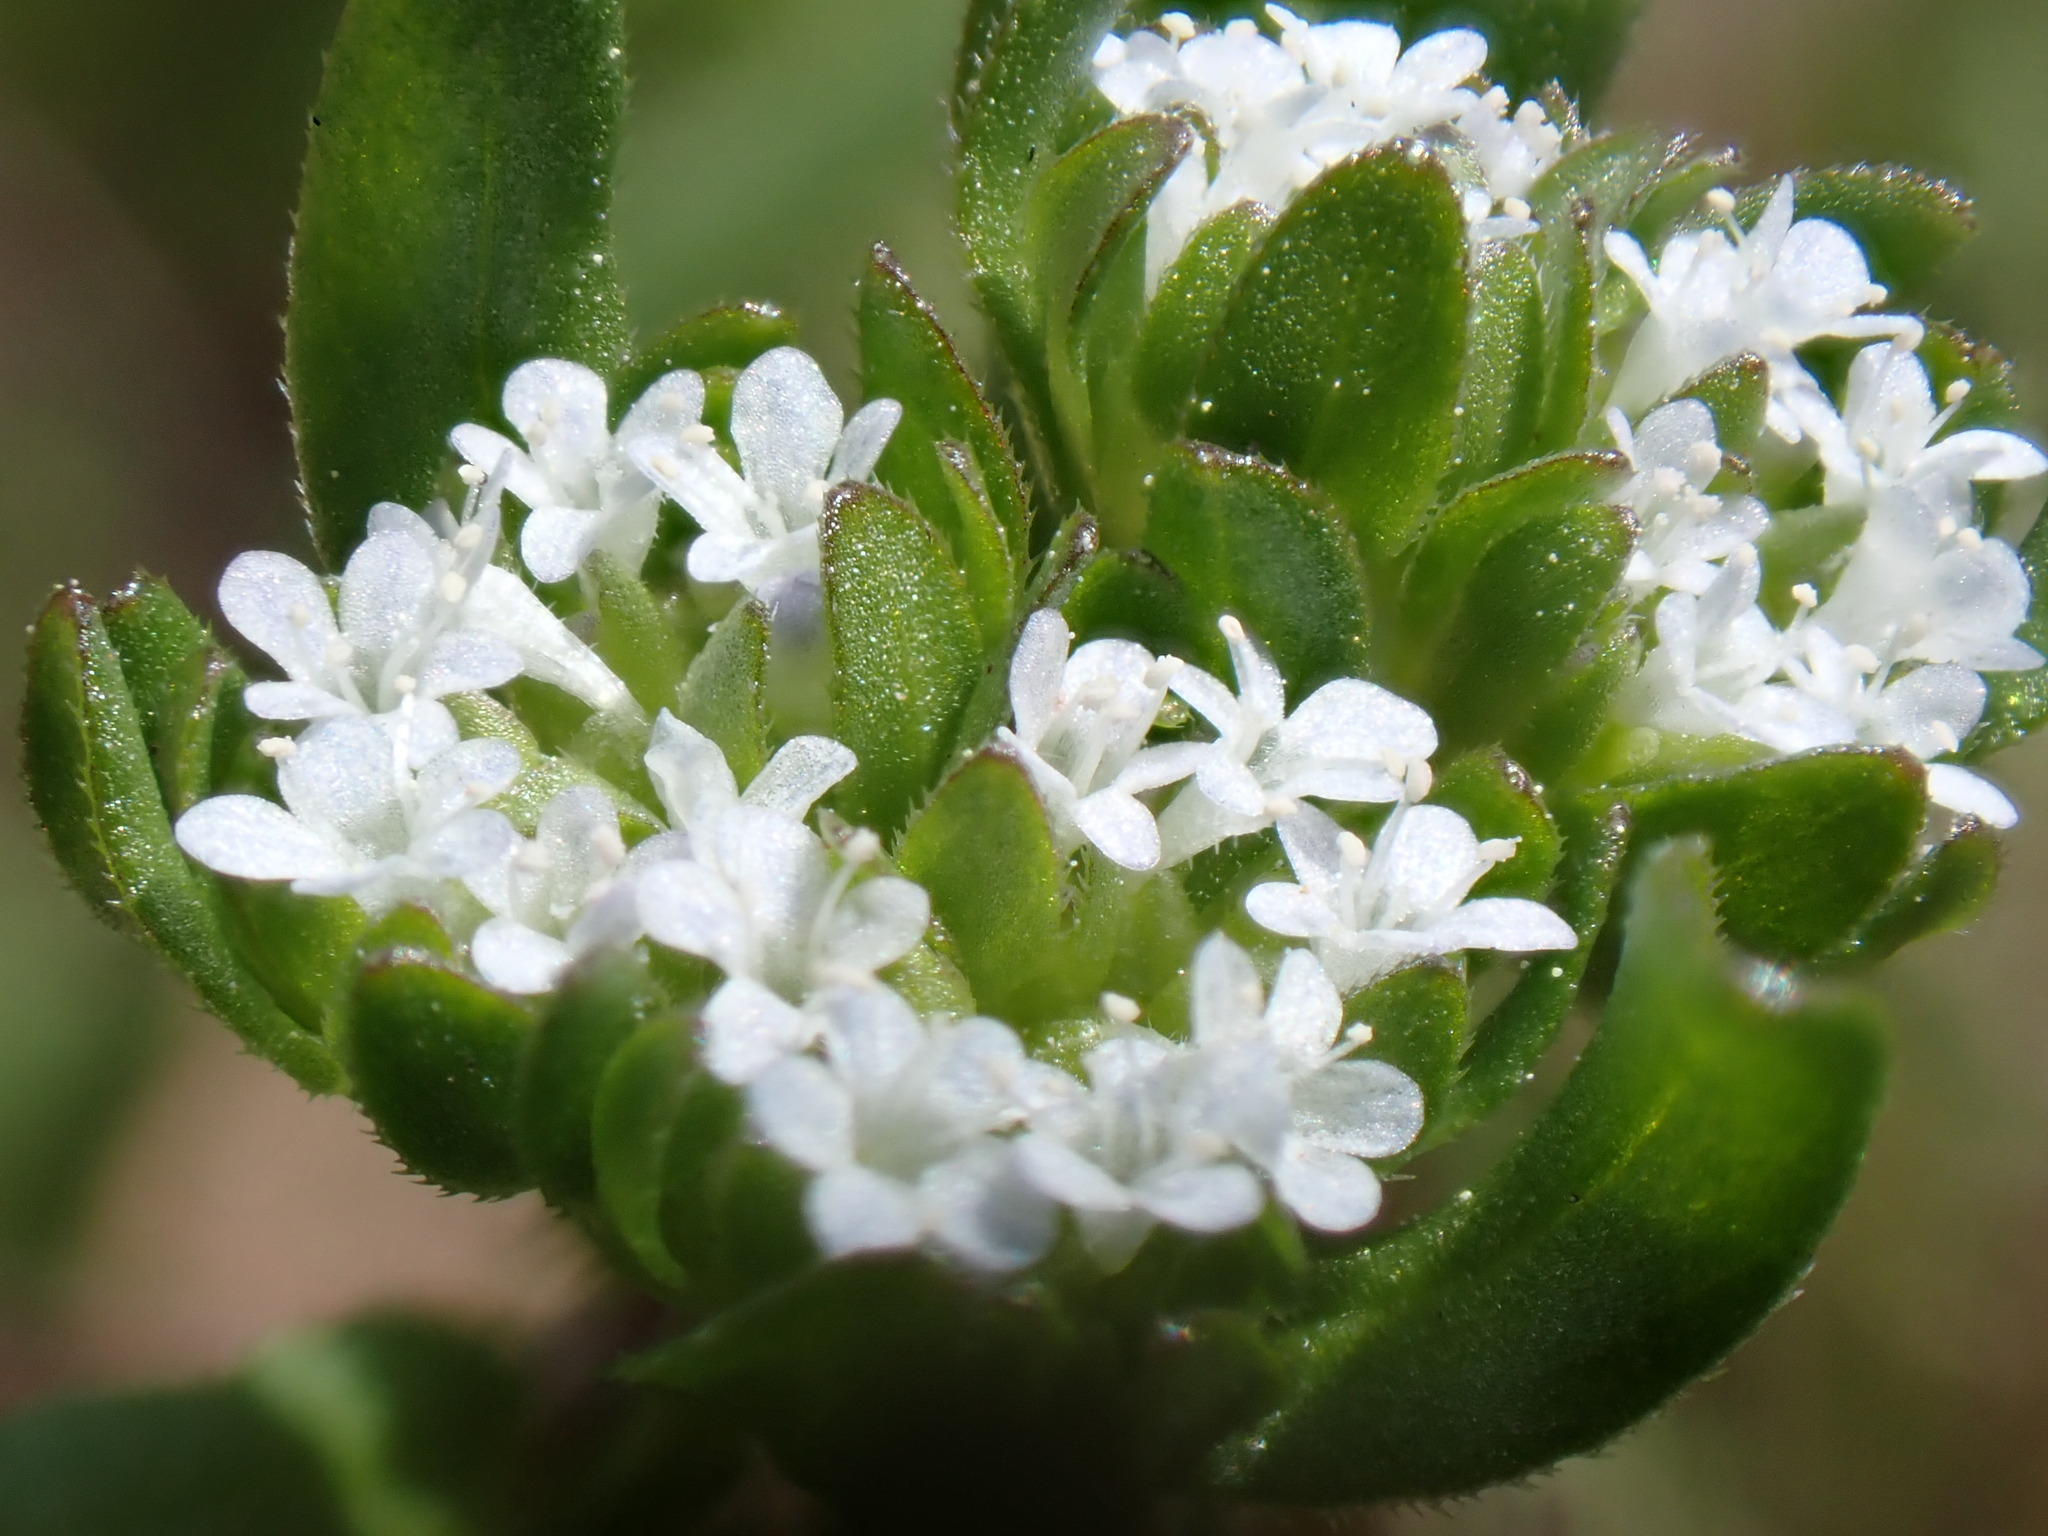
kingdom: Plantae
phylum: Tracheophyta
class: Magnoliopsida
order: Dipsacales
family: Caprifoliaceae
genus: Valerianella
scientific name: Valerianella locusta
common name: Common cornsalad
